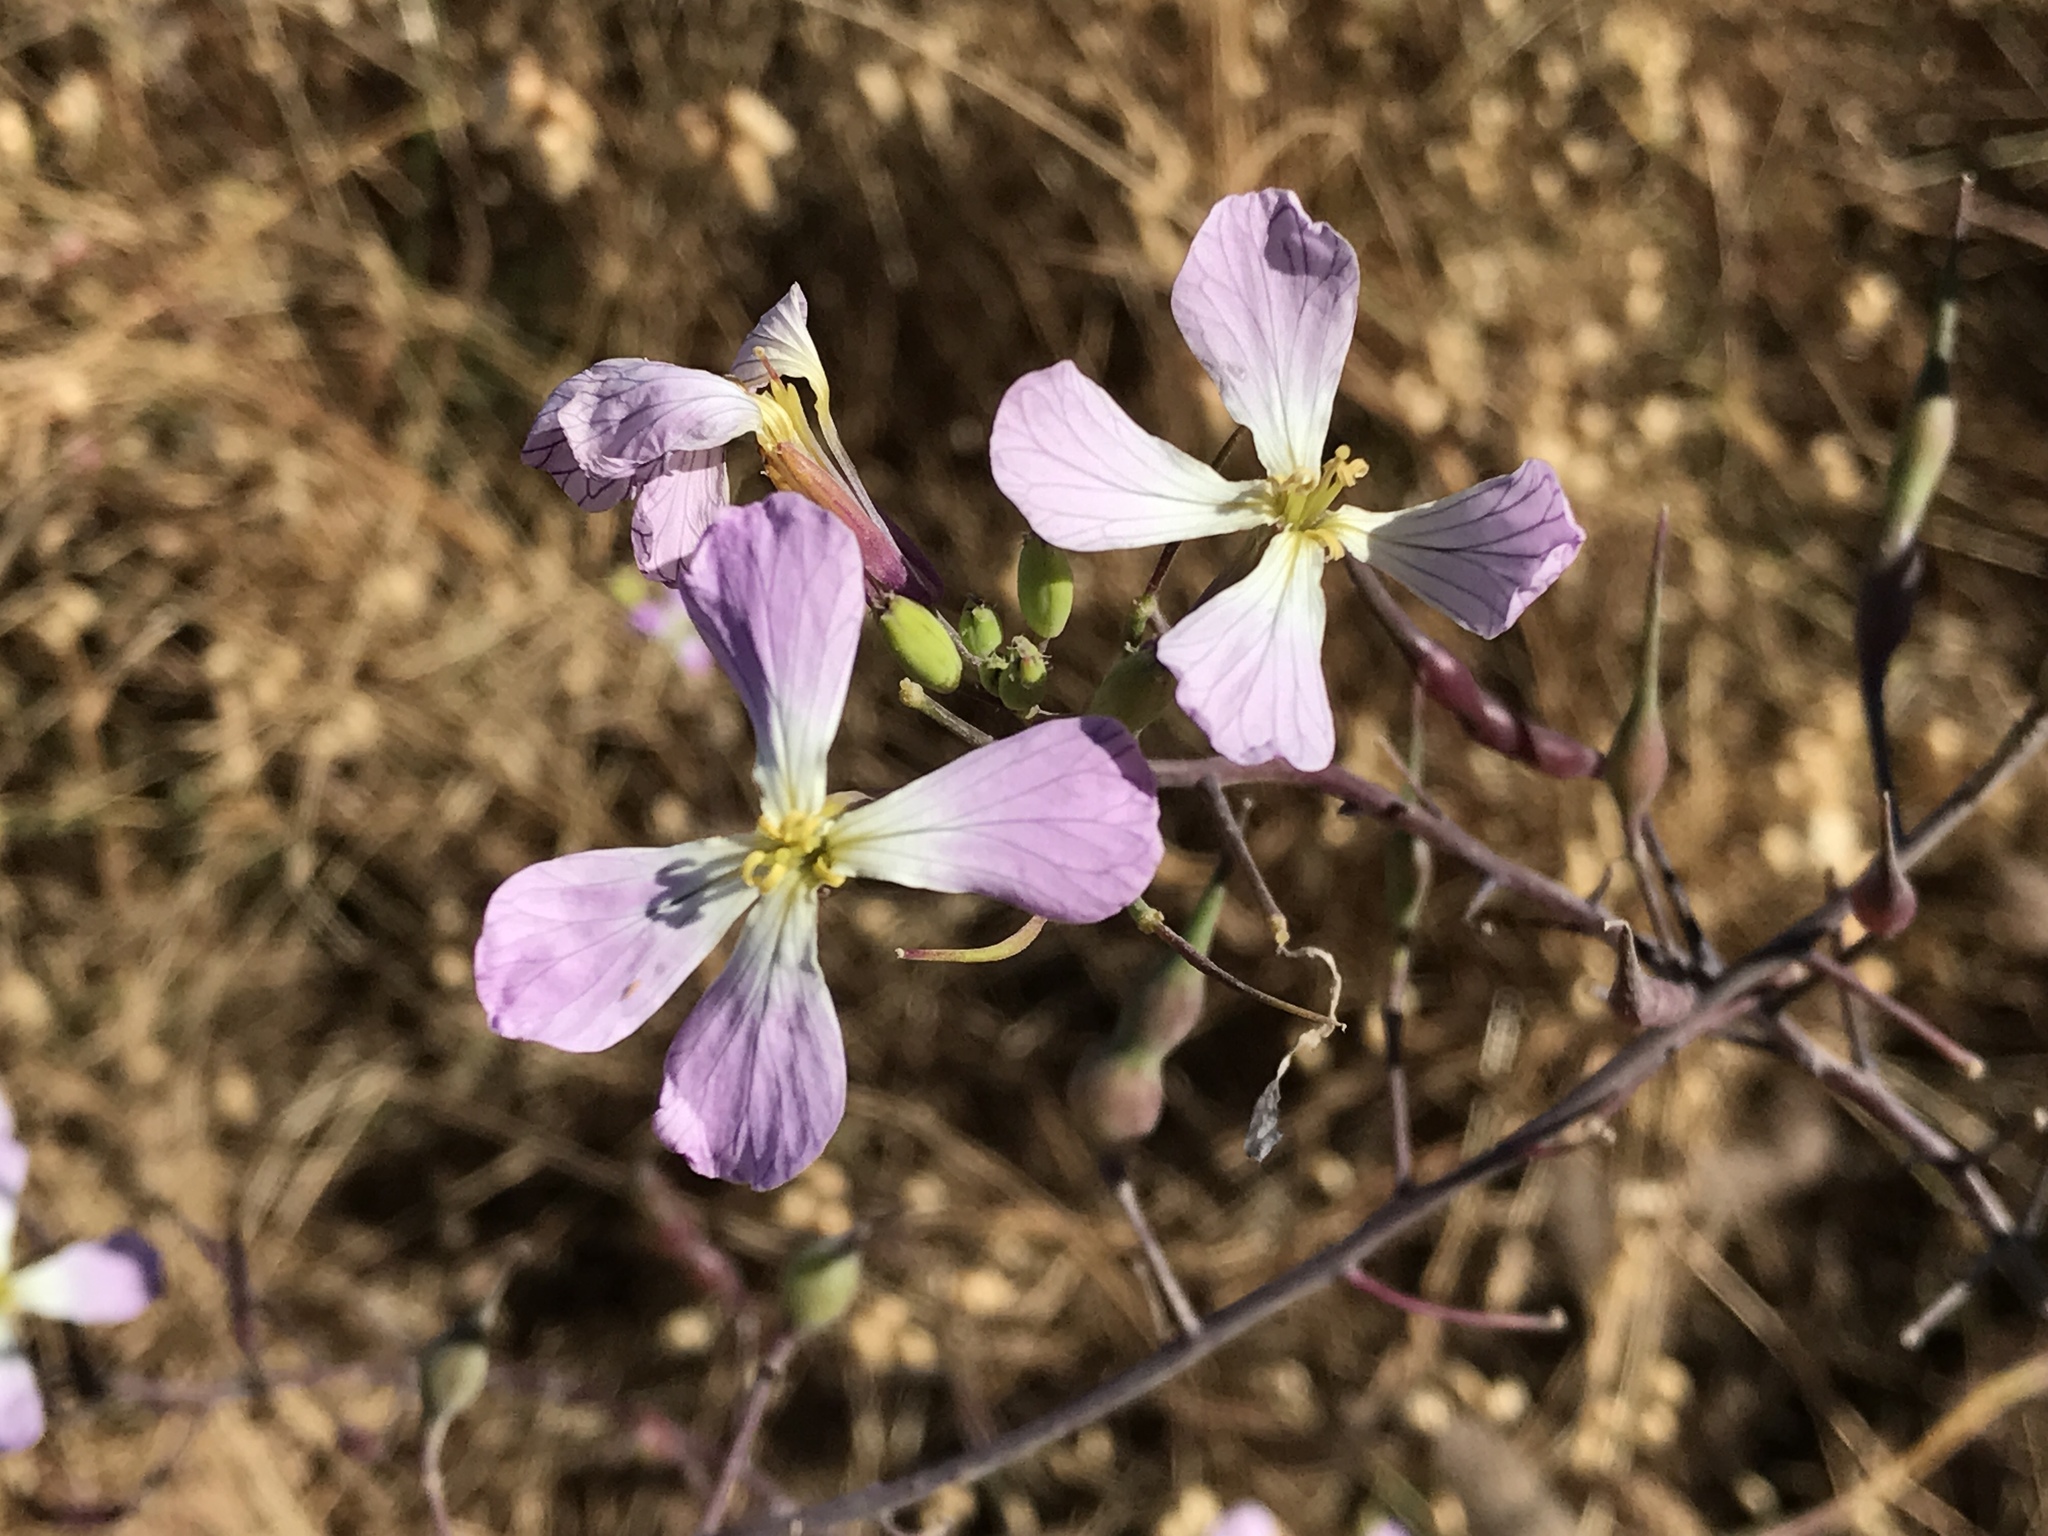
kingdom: Plantae
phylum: Tracheophyta
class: Magnoliopsida
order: Brassicales
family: Brassicaceae
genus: Raphanus
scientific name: Raphanus sativus
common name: Cultivated radish
